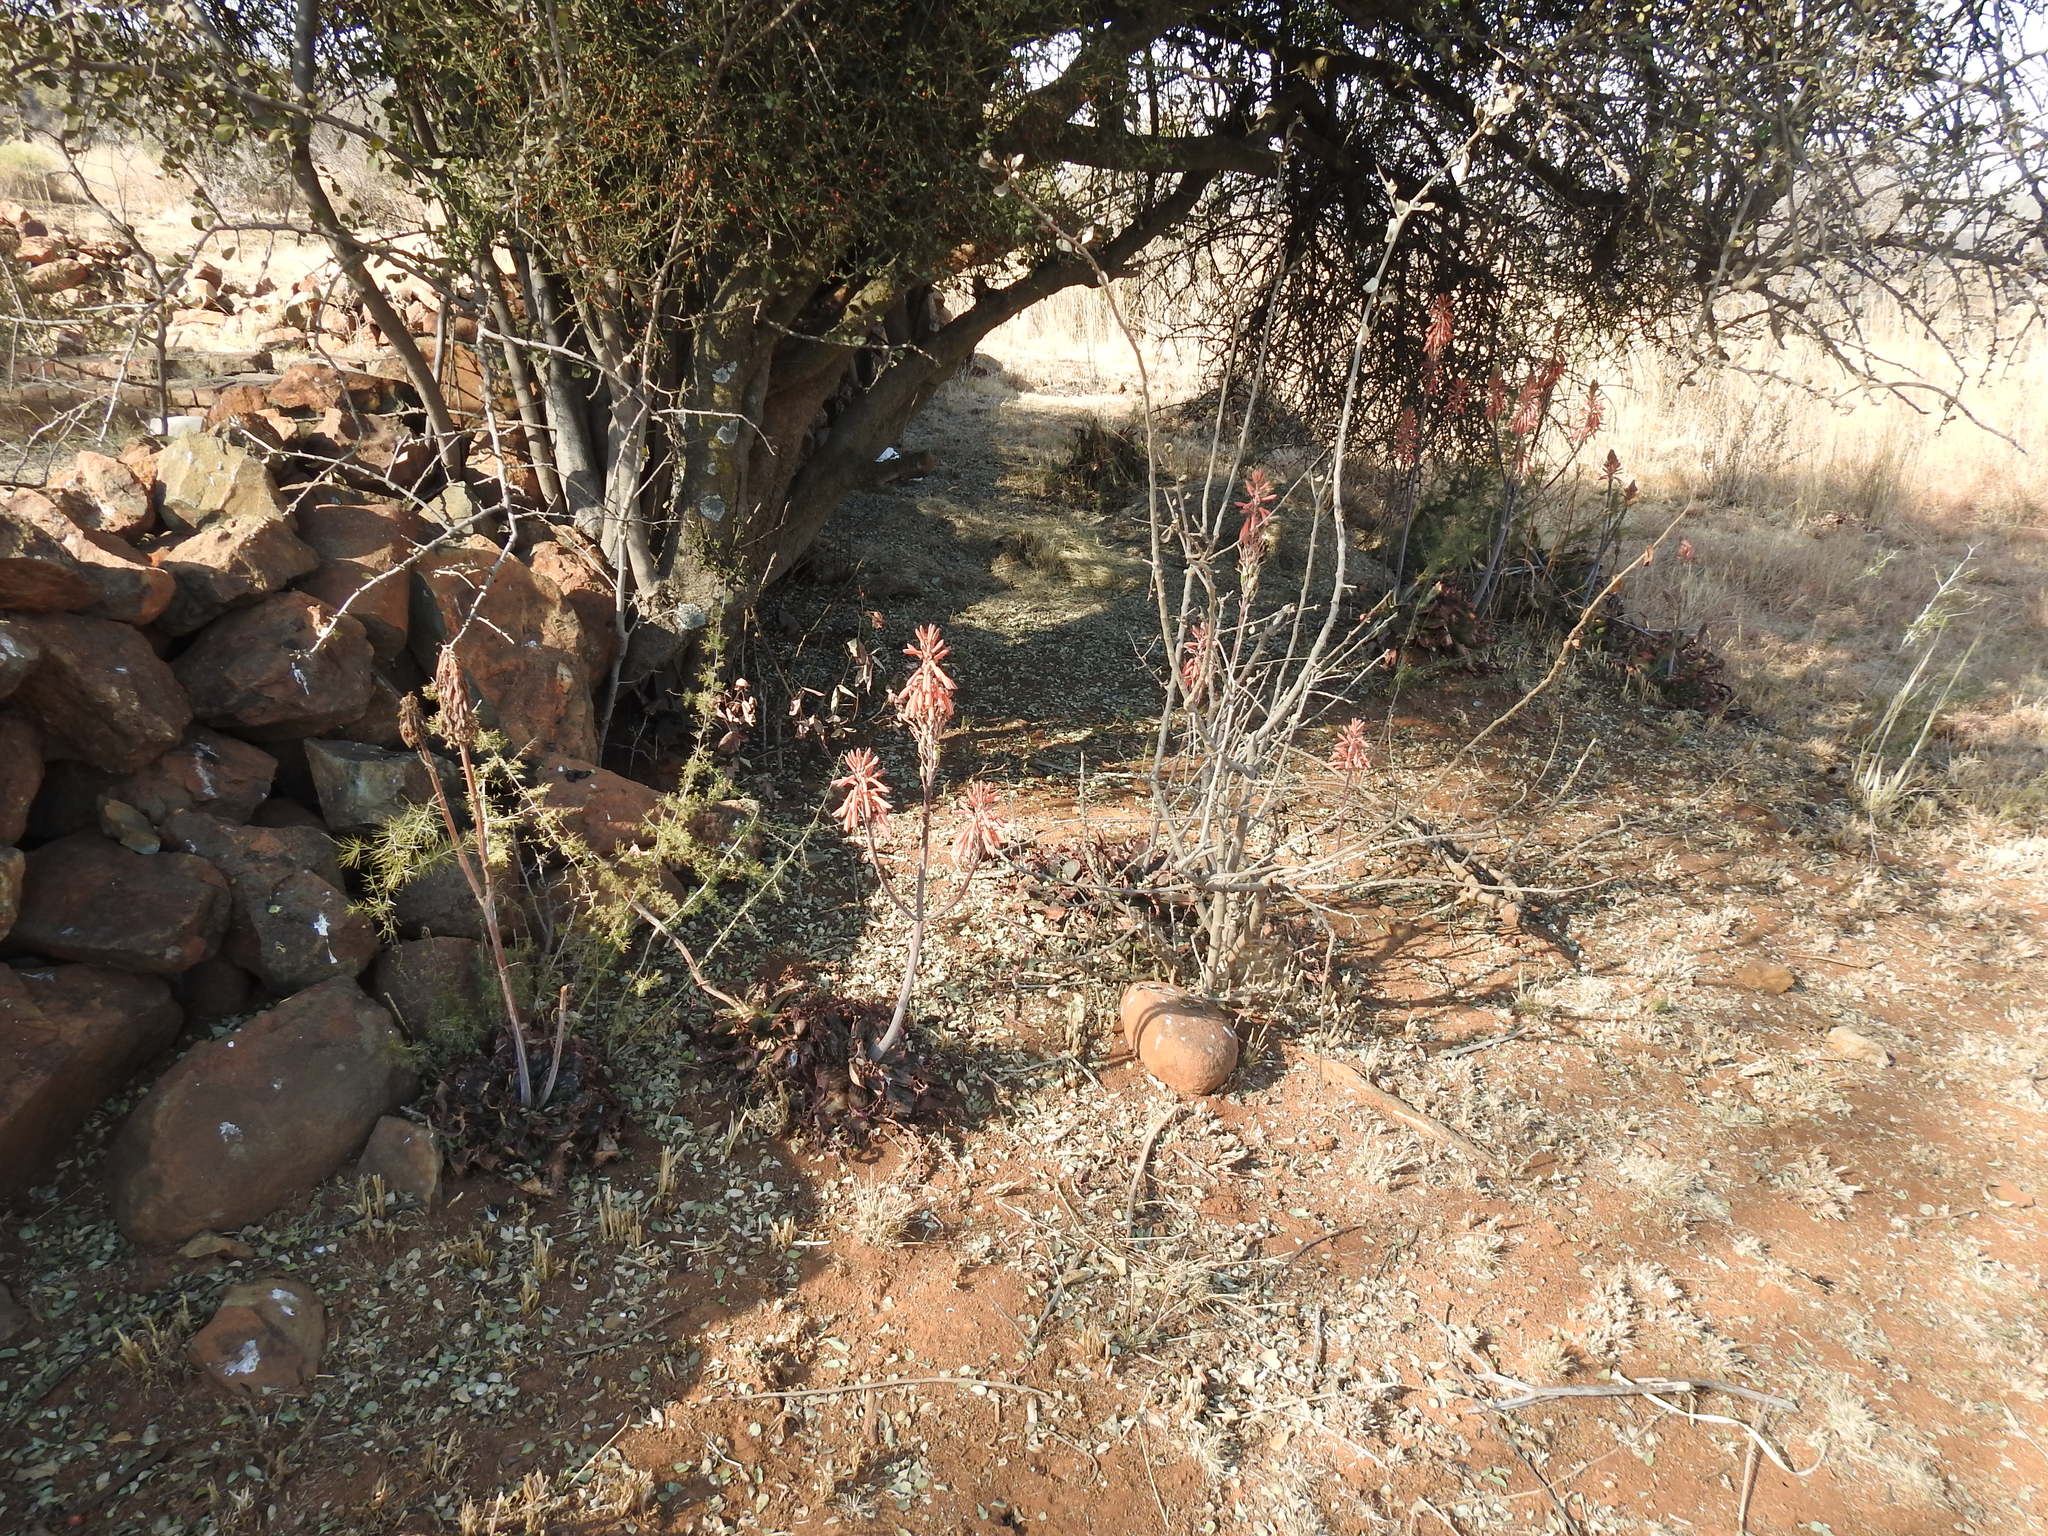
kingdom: Plantae
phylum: Tracheophyta
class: Liliopsida
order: Asparagales
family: Asphodelaceae
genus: Aloe
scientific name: Aloe greatheadii
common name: Greathead's aloe
